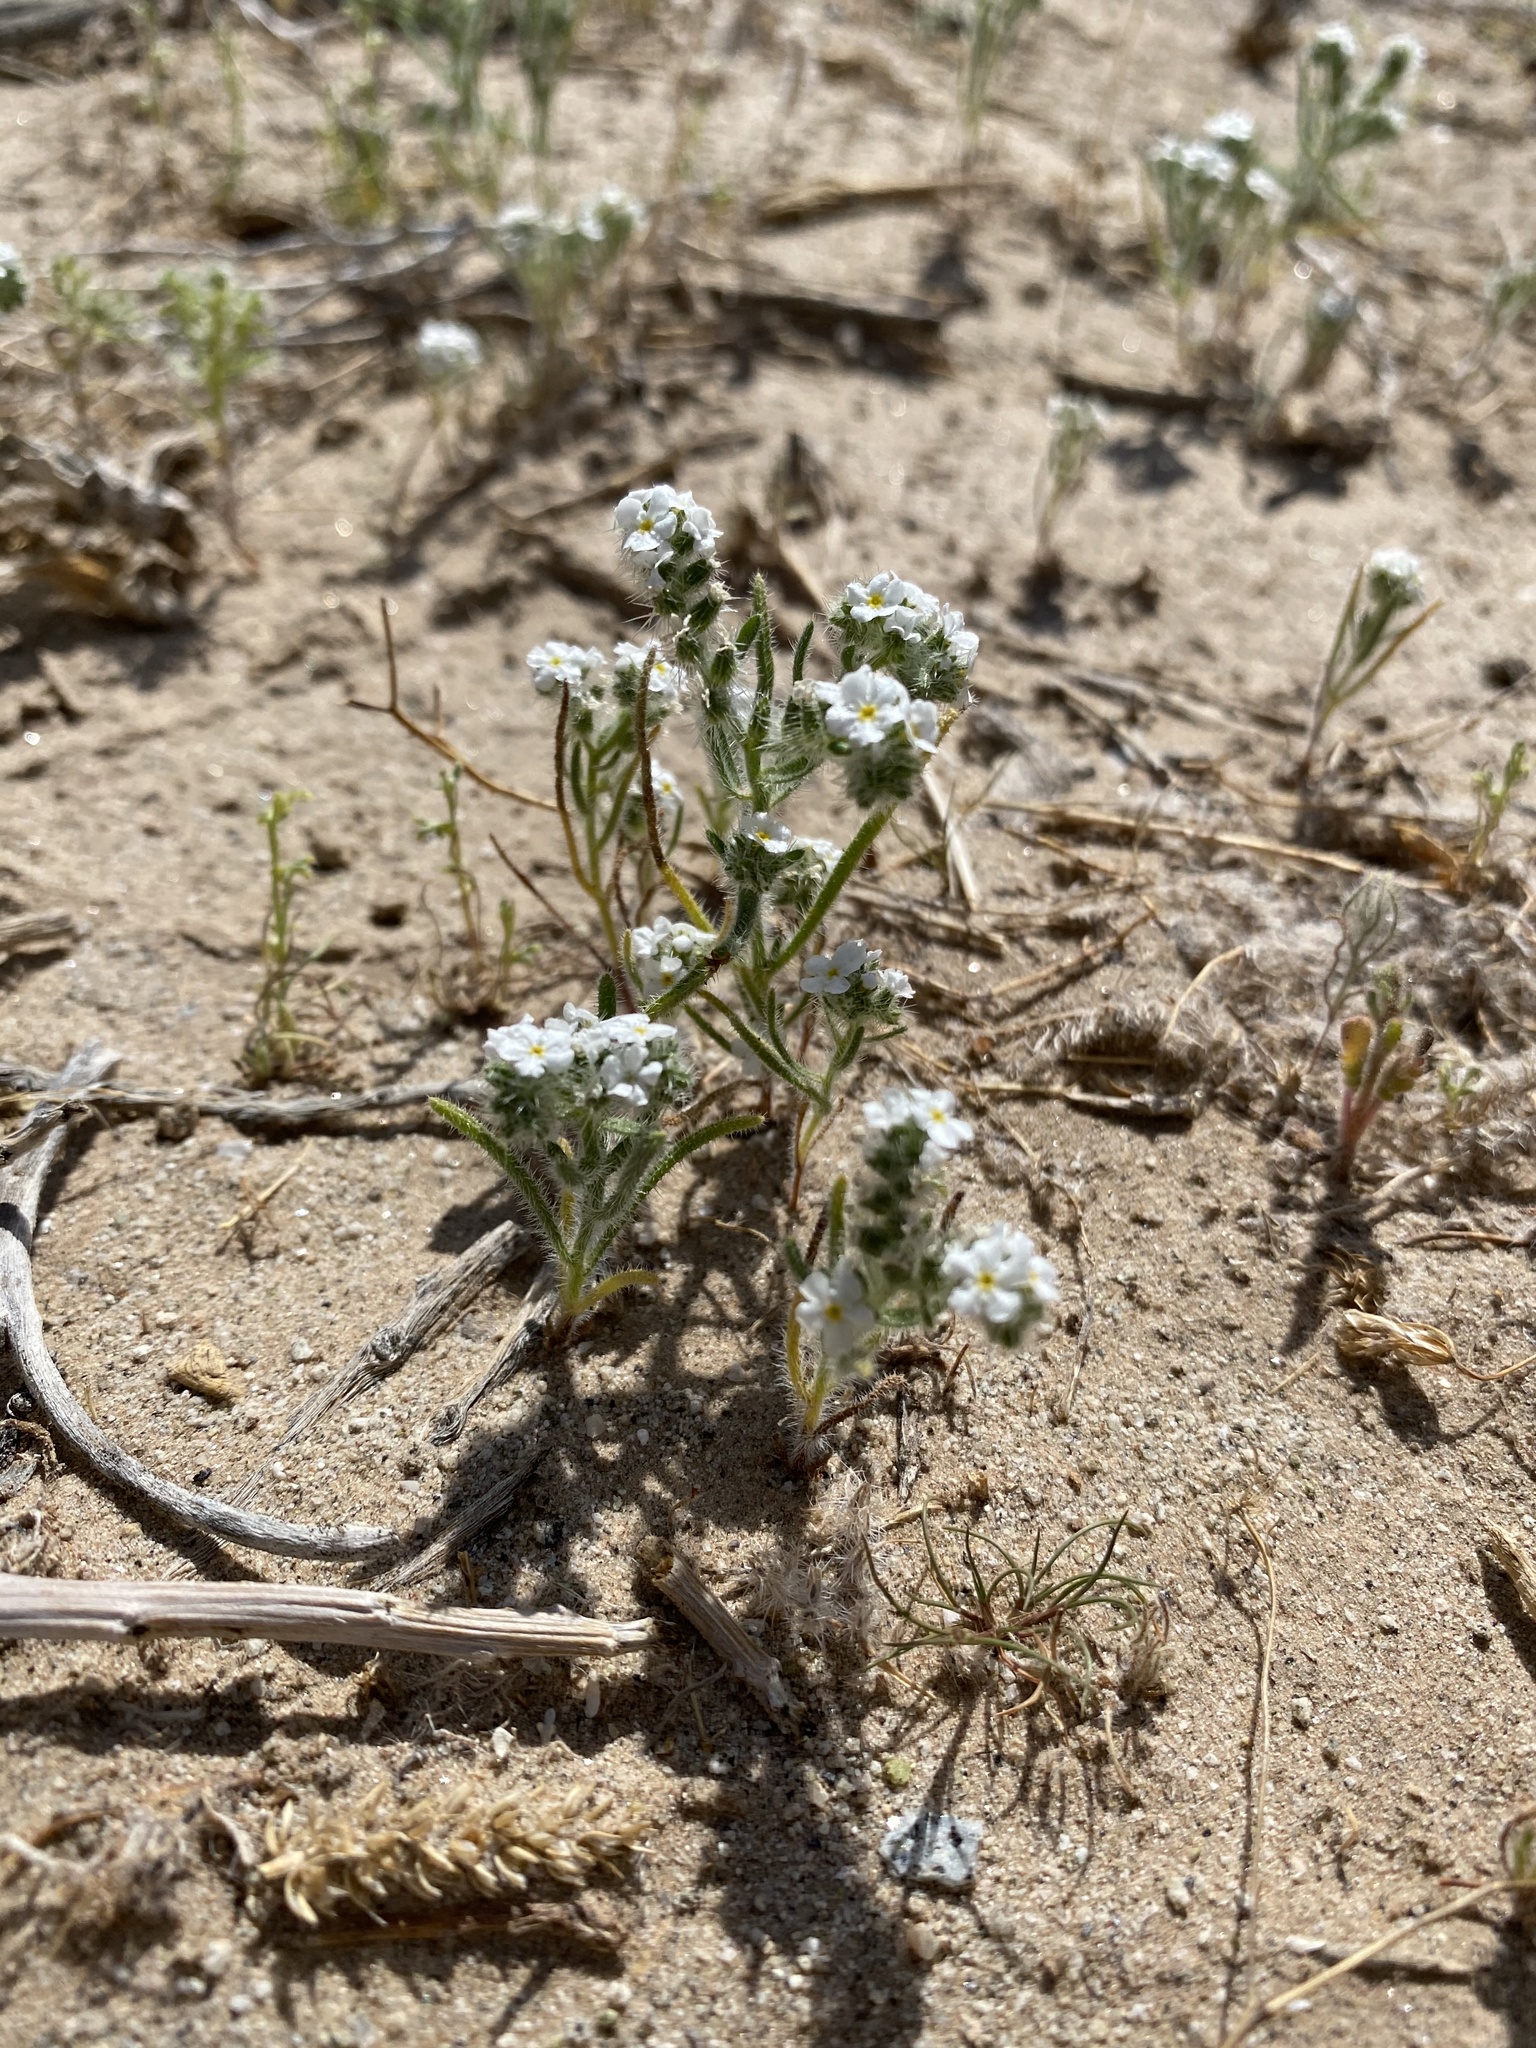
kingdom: Plantae
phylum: Tracheophyta
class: Magnoliopsida
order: Boraginales
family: Boraginaceae
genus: Johnstonella
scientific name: Johnstonella angustifolia
